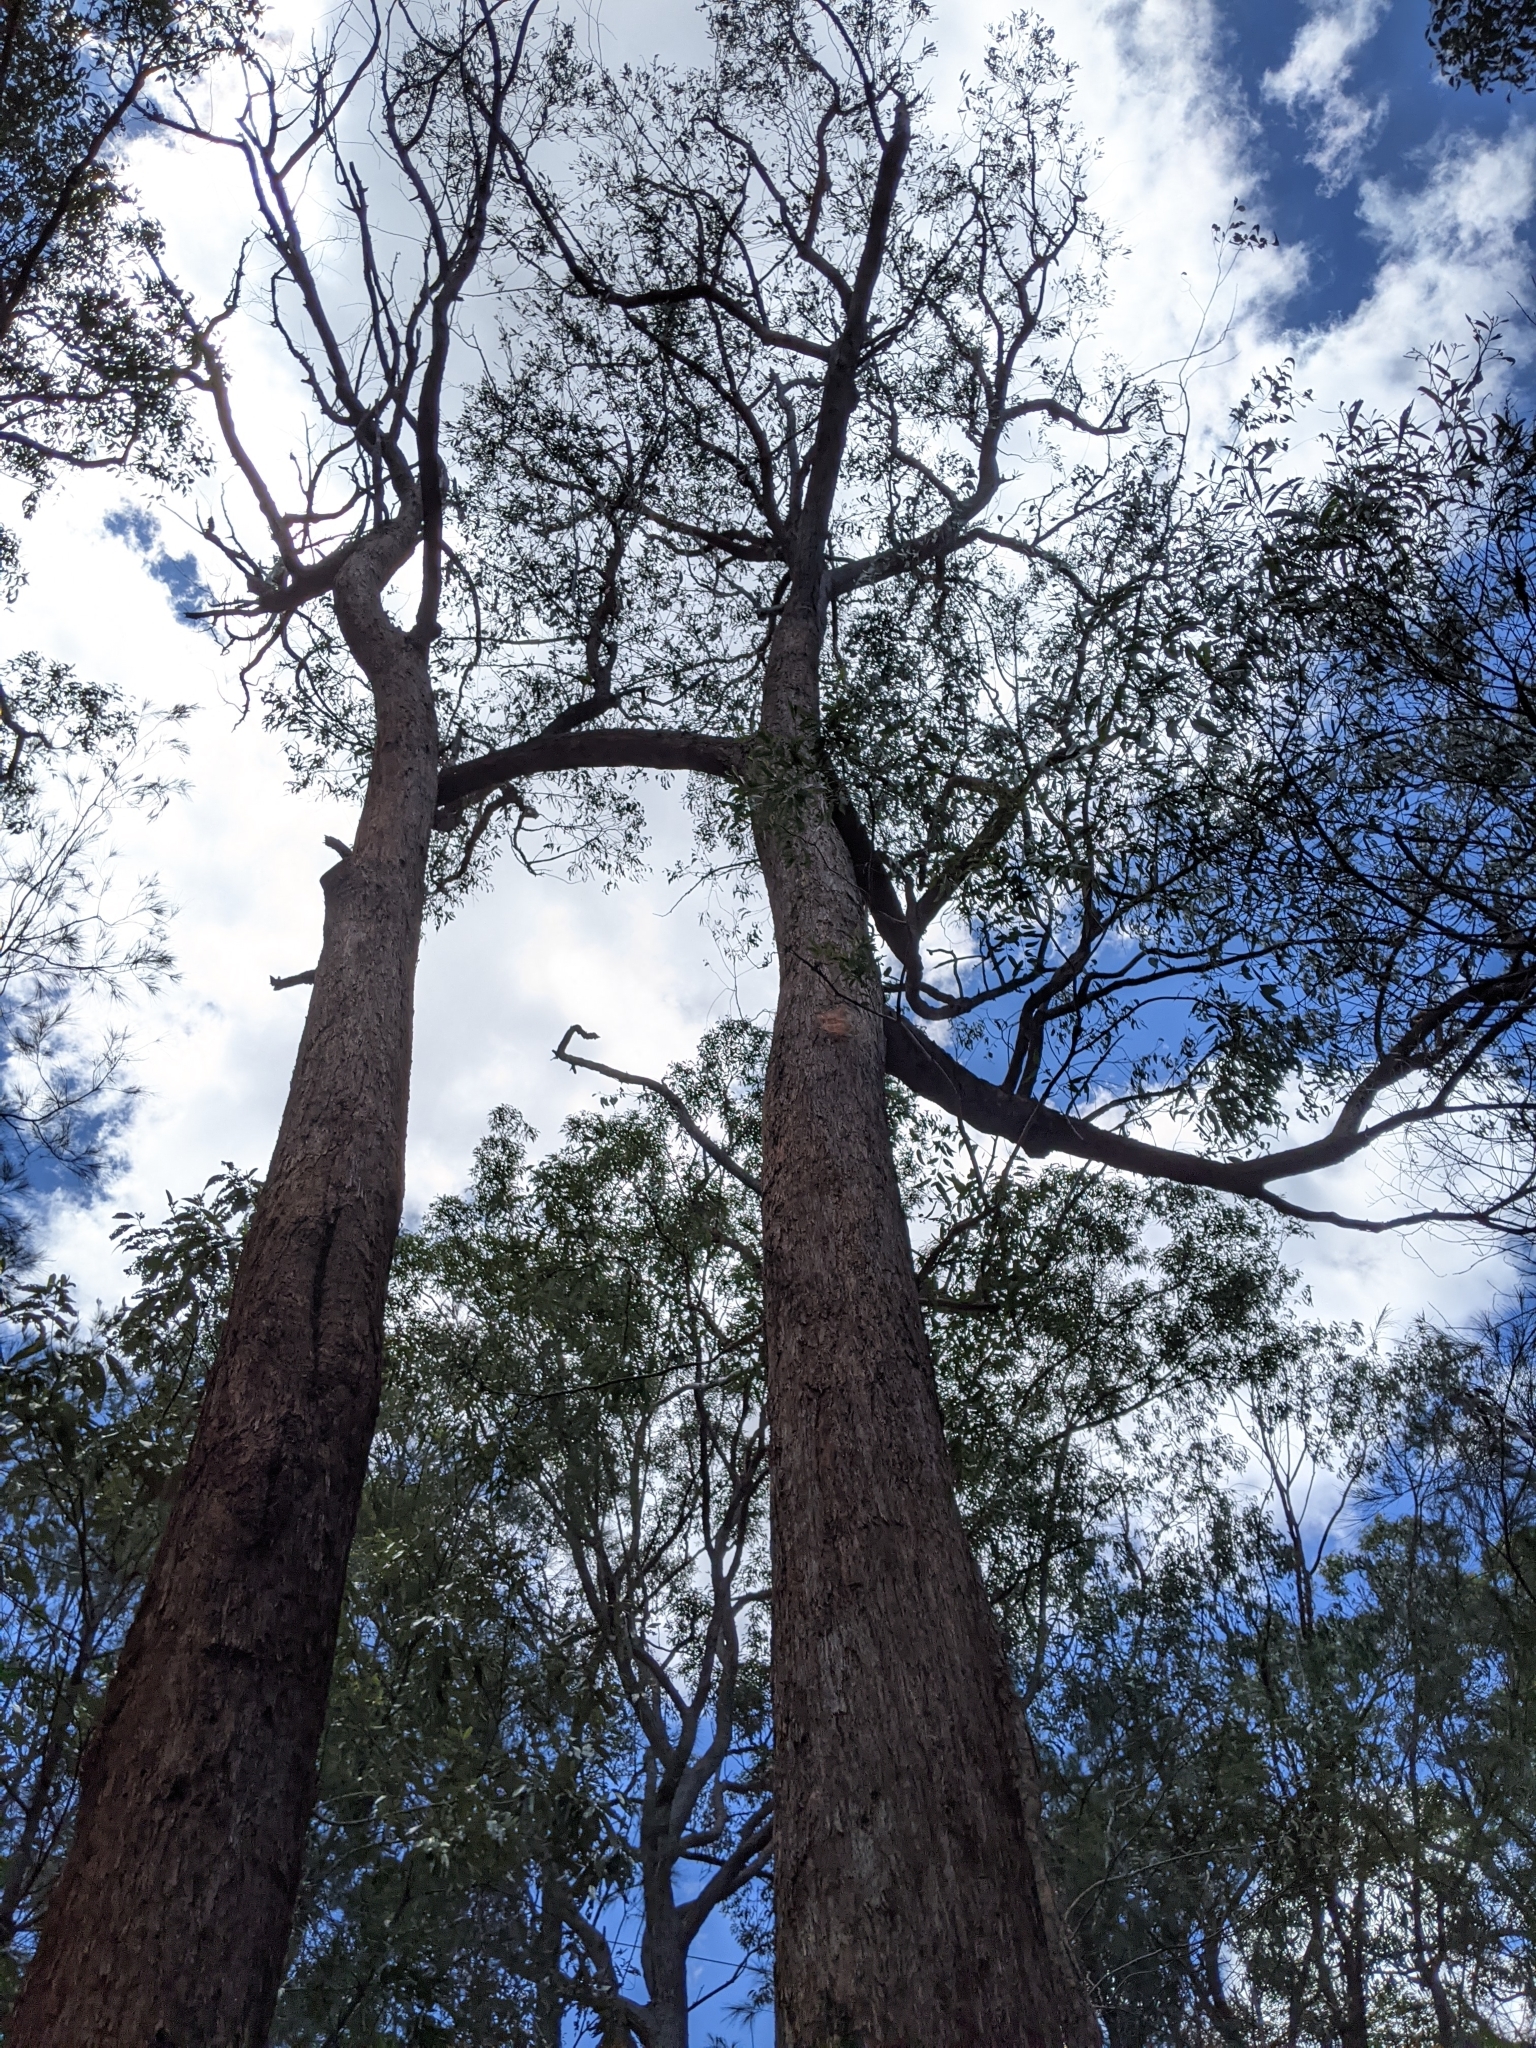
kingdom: Plantae
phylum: Tracheophyta
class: Magnoliopsida
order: Myrtales
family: Myrtaceae
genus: Eucalyptus
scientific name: Eucalyptus microcorys
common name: Tallowwood
